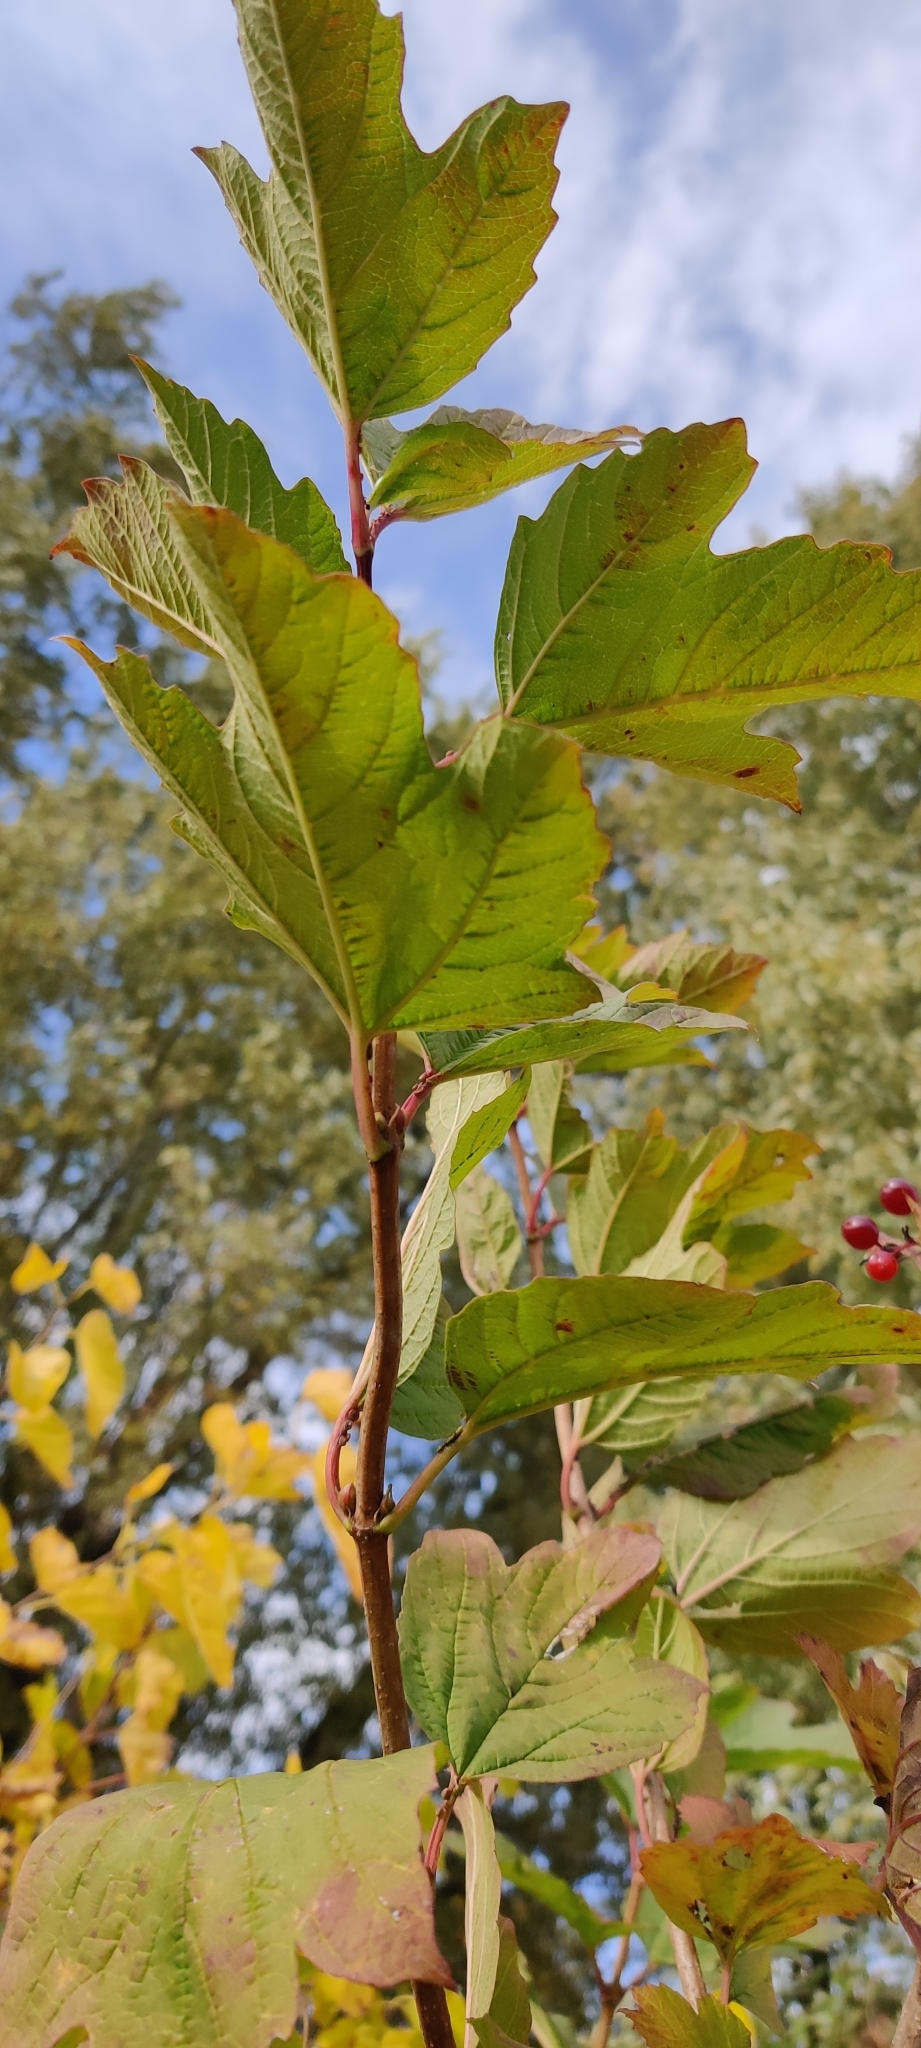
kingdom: Plantae
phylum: Tracheophyta
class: Magnoliopsida
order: Dipsacales
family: Viburnaceae
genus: Viburnum
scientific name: Viburnum opulus
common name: Guelder-rose
